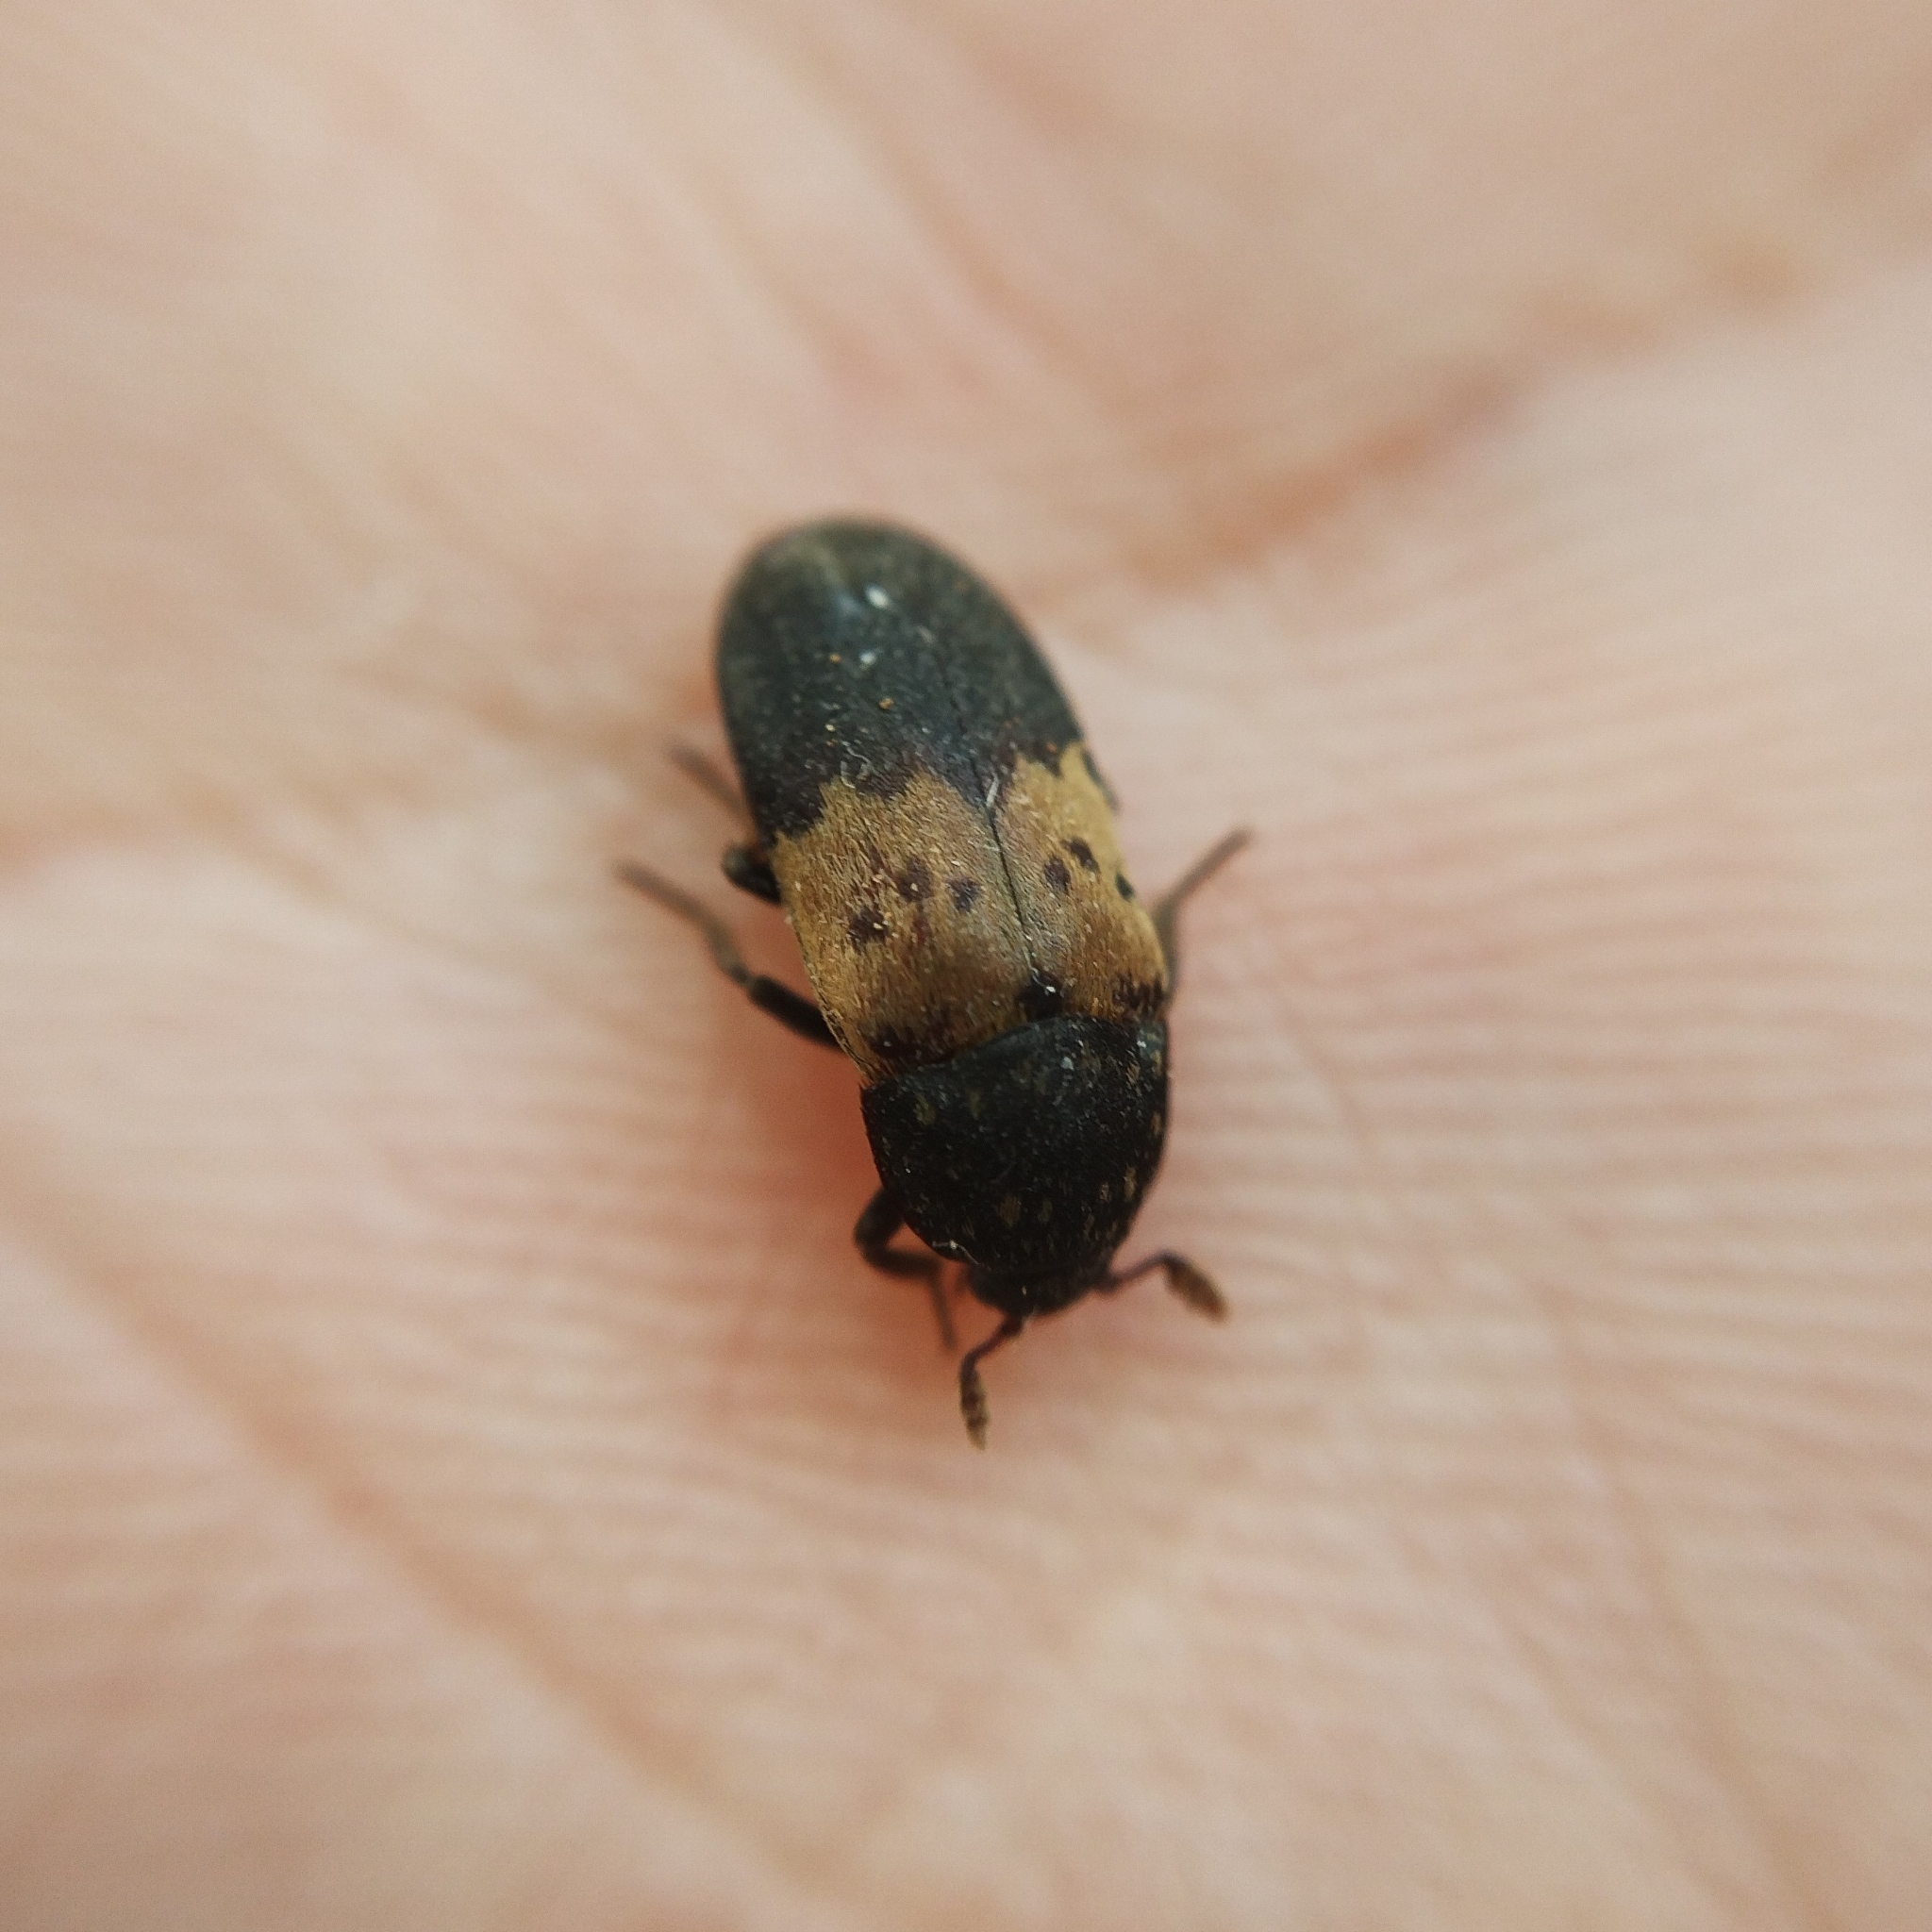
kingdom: Animalia
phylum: Arthropoda
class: Insecta
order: Coleoptera
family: Dermestidae
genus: Dermestes
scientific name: Dermestes lardarius
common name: Larder beetle
